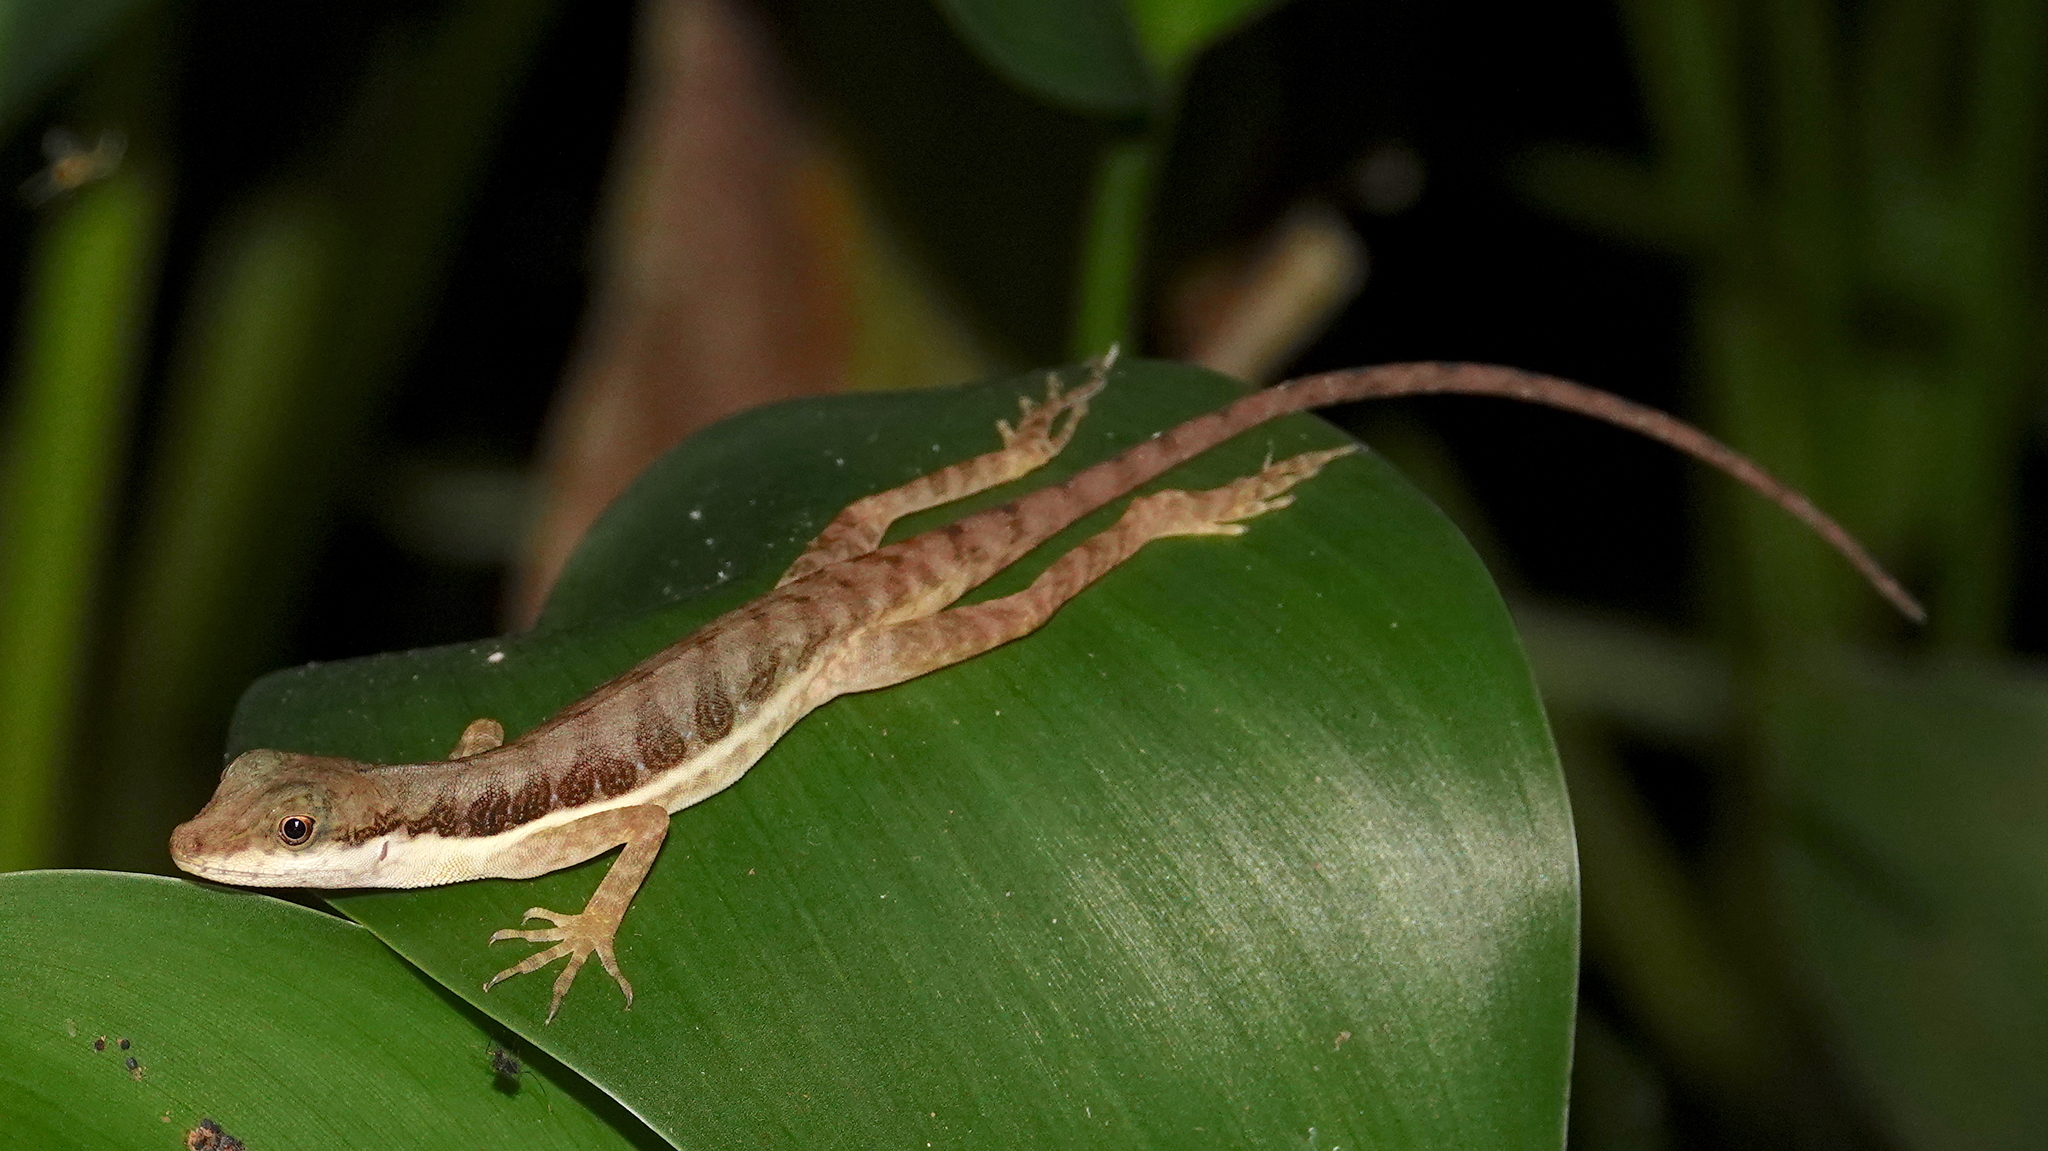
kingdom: Animalia
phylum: Chordata
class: Squamata
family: Dactyloidae
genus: Anolis
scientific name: Anolis oxylophus
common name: Stream anole
